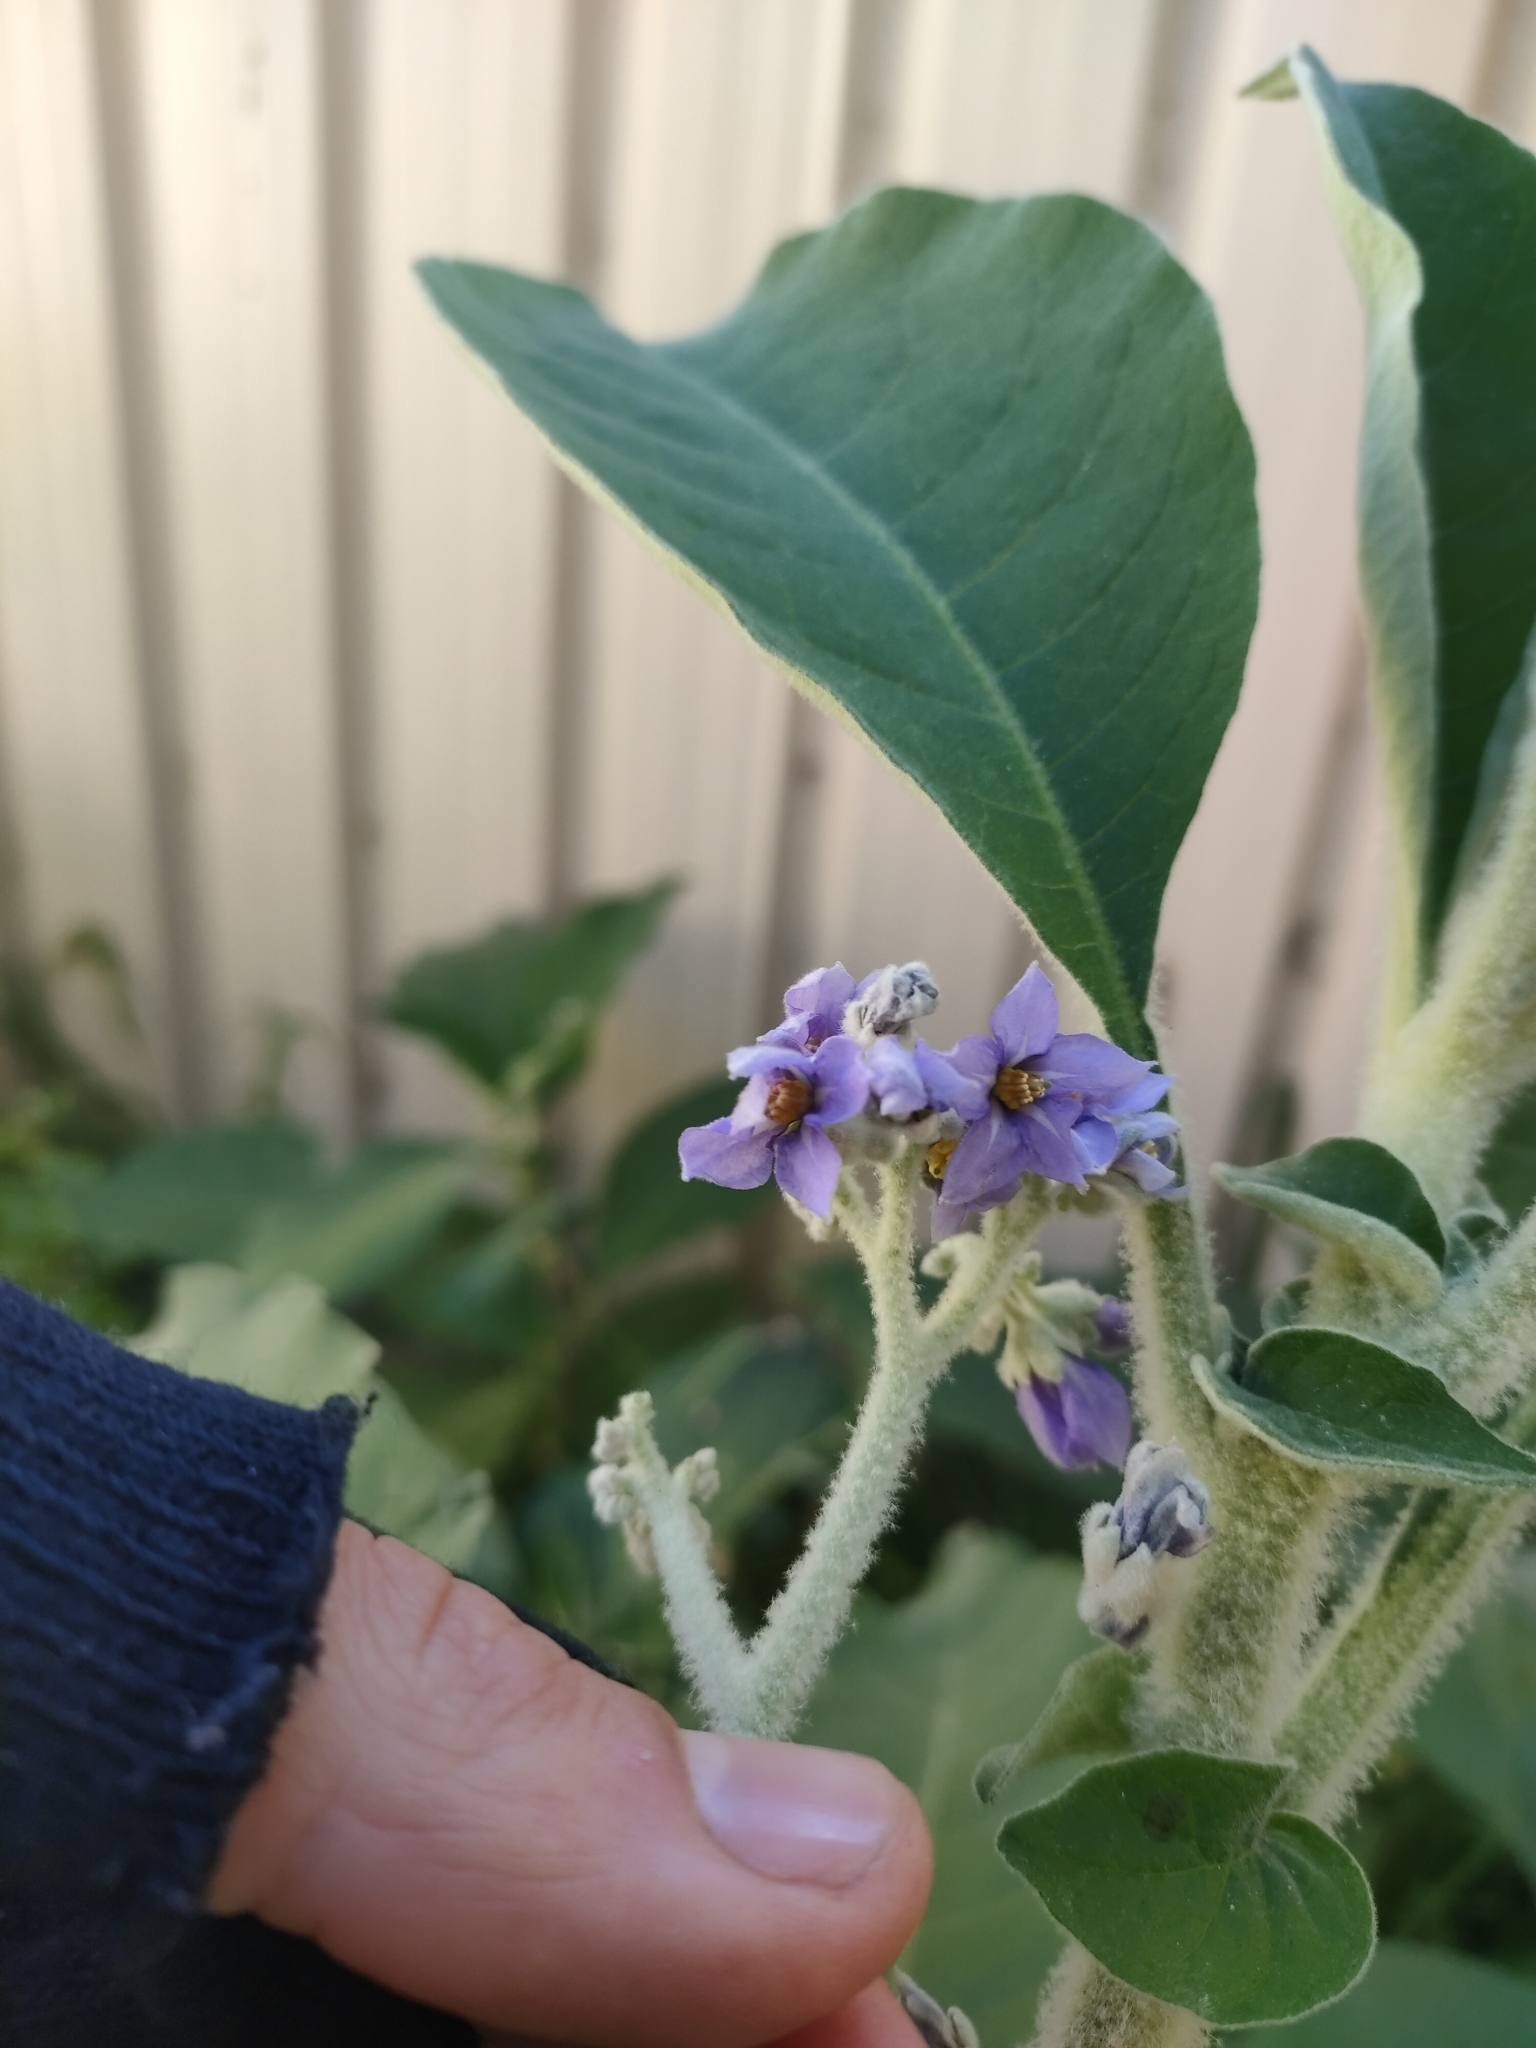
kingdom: Plantae
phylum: Tracheophyta
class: Magnoliopsida
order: Solanales
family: Solanaceae
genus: Solanum
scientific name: Solanum mauritianum
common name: Earleaf nightshade
